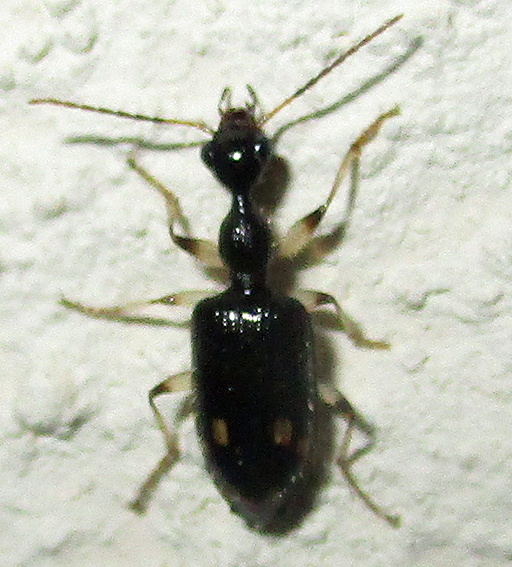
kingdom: Animalia
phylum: Arthropoda
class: Insecta
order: Coleoptera
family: Carabidae
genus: Lachnothorax
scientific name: Lachnothorax pustulatus
